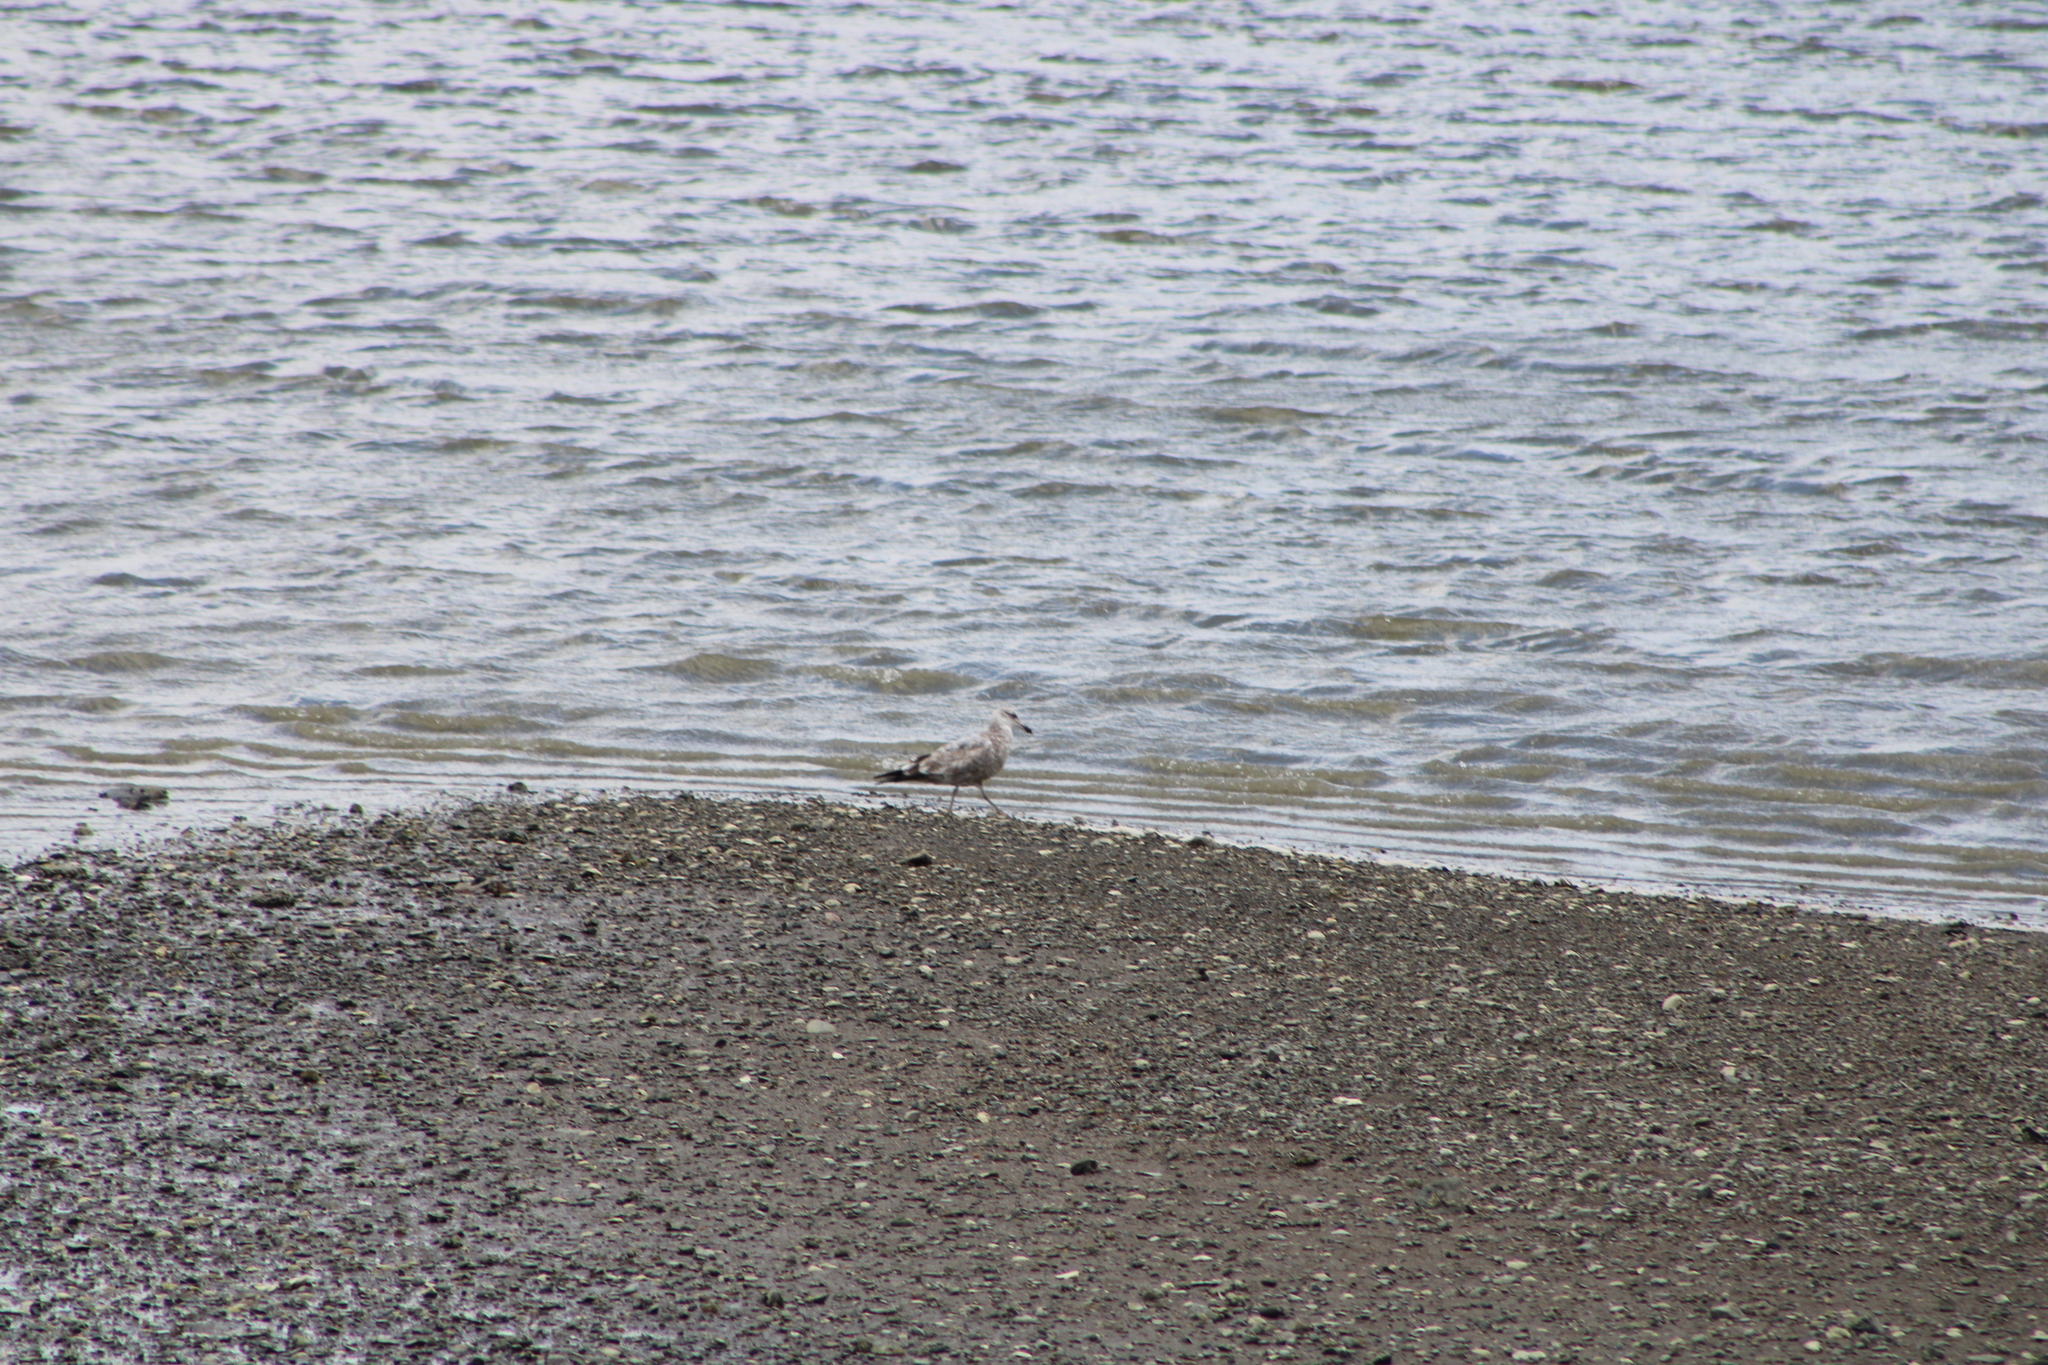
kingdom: Animalia
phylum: Chordata
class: Aves
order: Charadriiformes
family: Laridae
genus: Larus
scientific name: Larus argentatus
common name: Herring gull
